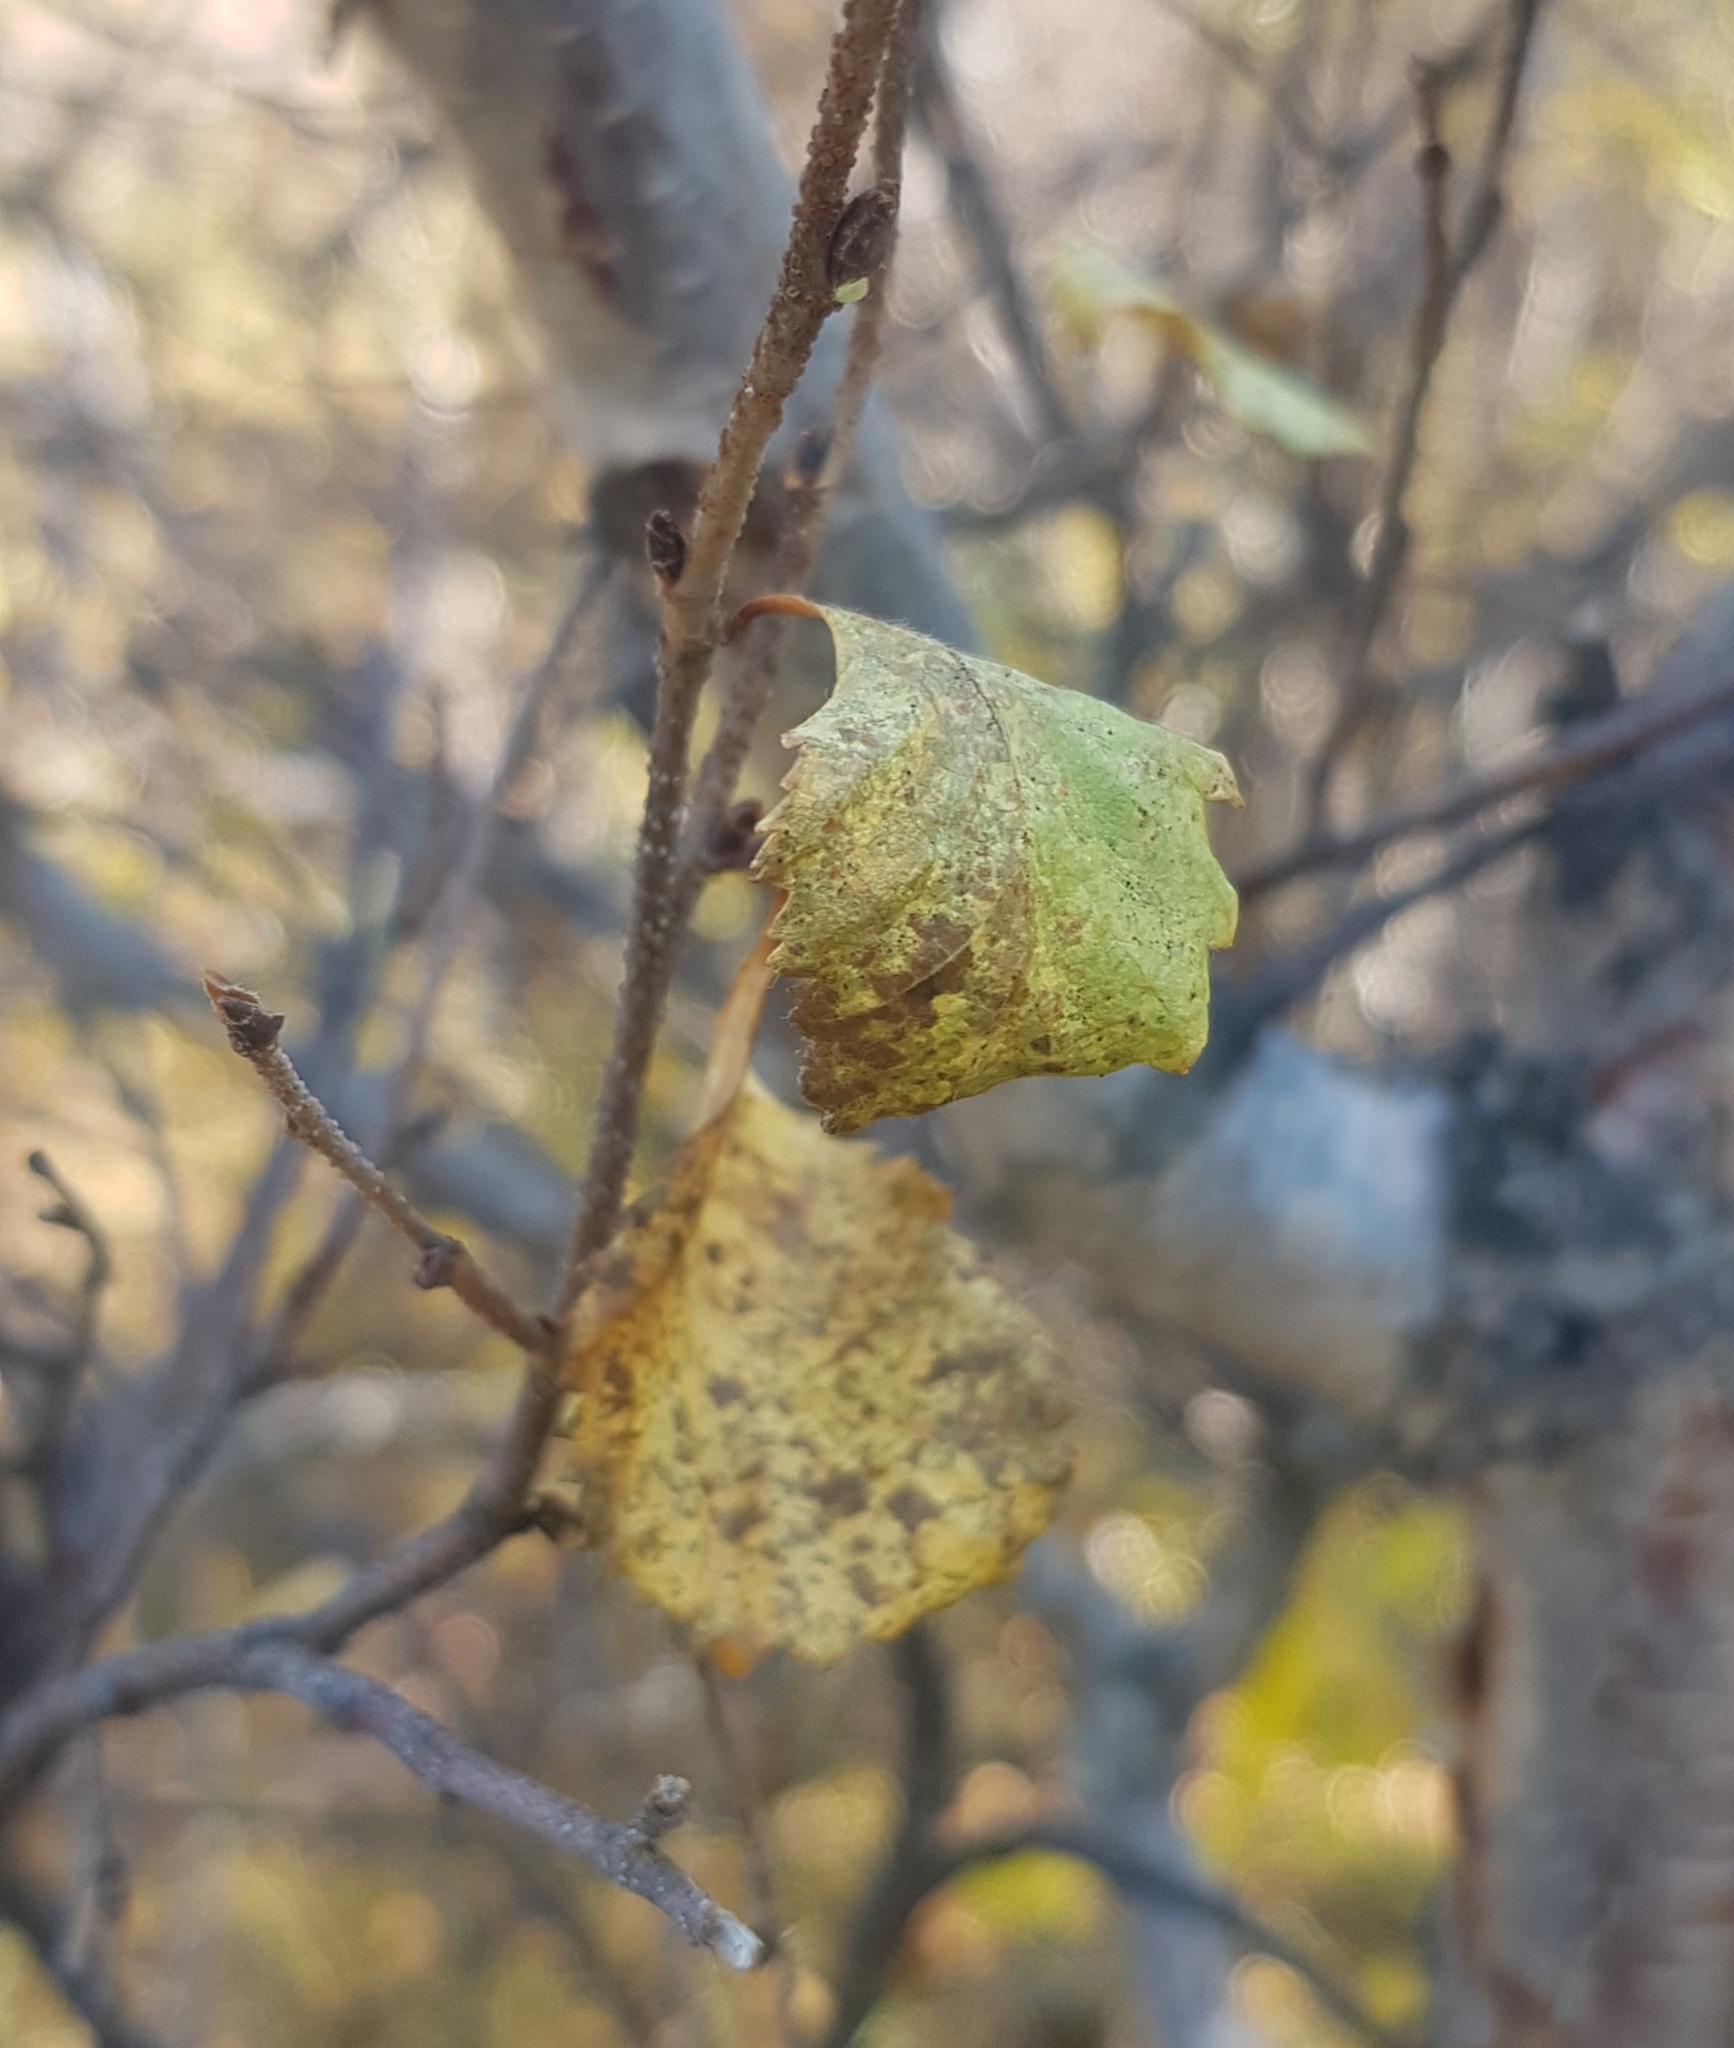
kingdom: Plantae
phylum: Tracheophyta
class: Magnoliopsida
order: Fagales
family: Betulaceae
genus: Betula
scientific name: Betula fruticosa
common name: Japanese bog birch
